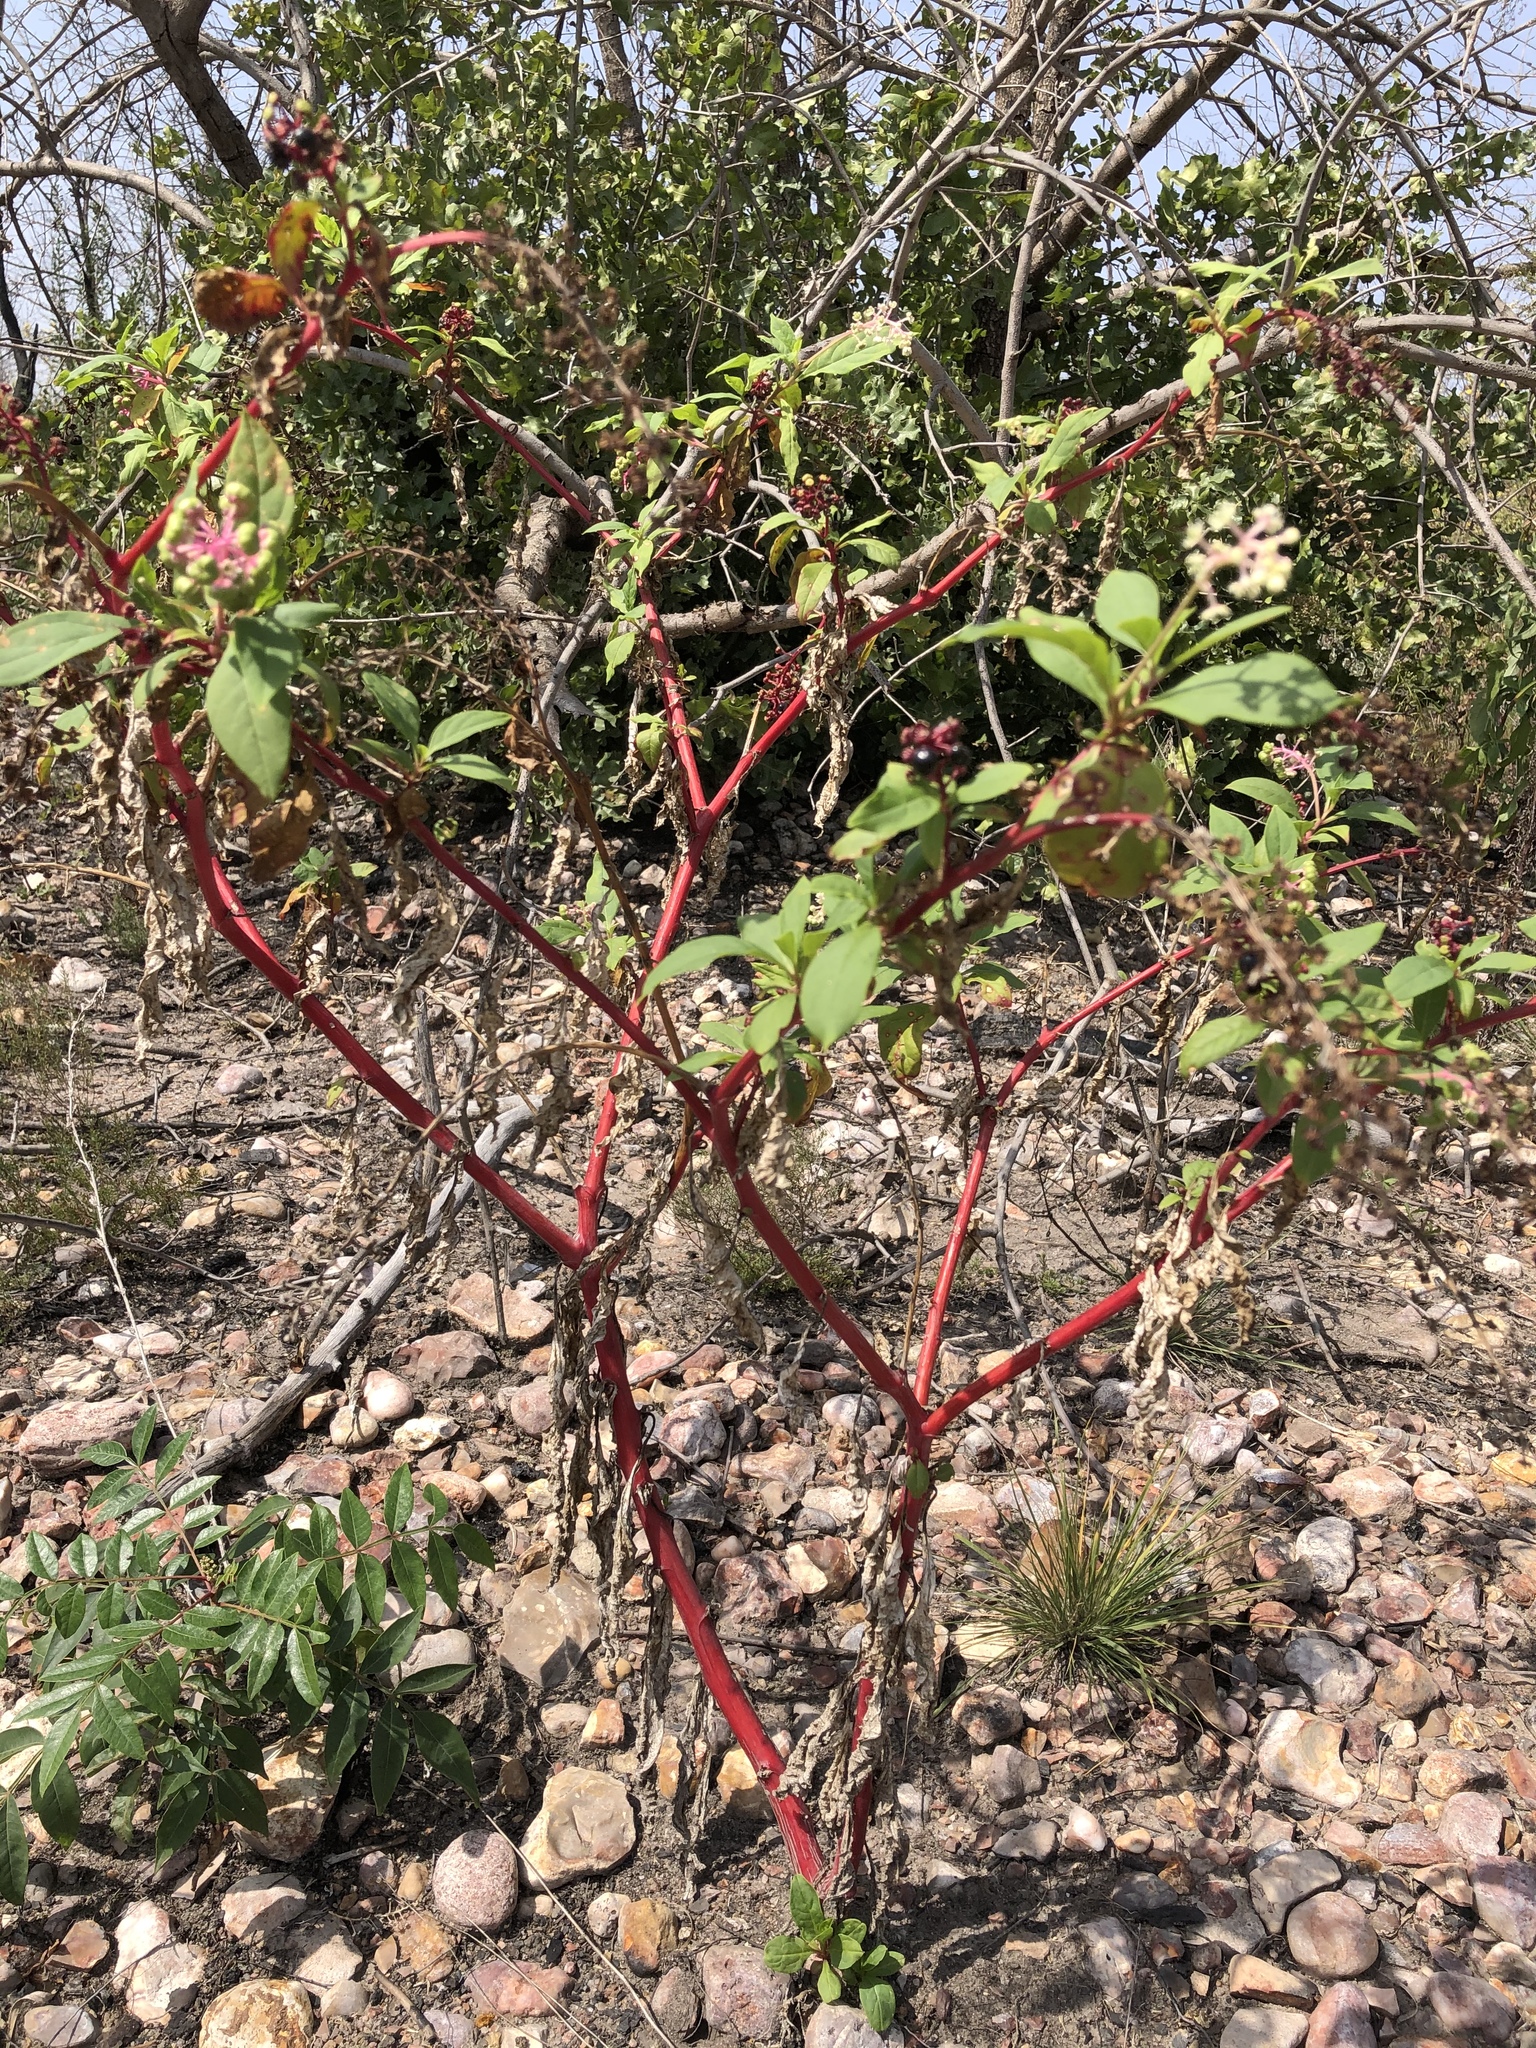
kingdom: Plantae
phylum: Tracheophyta
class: Magnoliopsida
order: Caryophyllales
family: Phytolaccaceae
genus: Phytolacca
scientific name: Phytolacca americana
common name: American pokeweed
